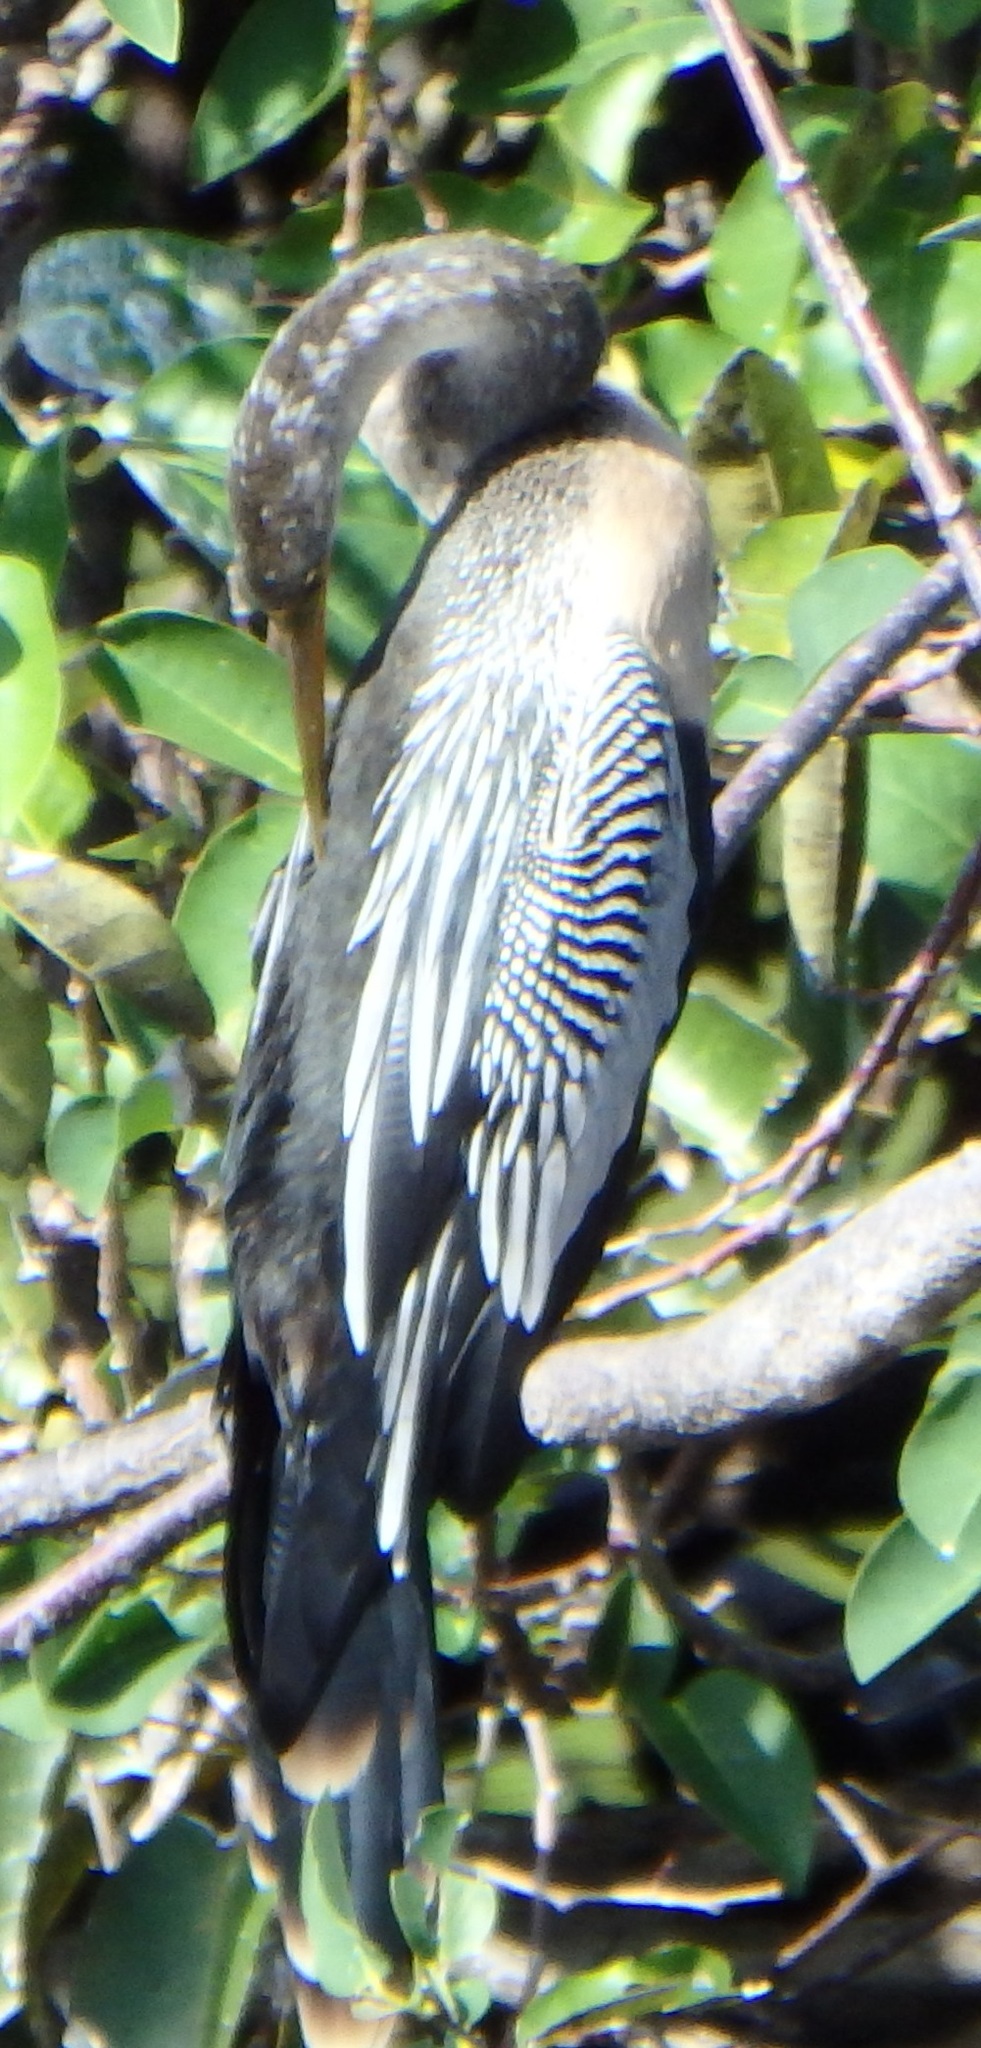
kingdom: Animalia
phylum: Chordata
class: Aves
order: Suliformes
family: Anhingidae
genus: Anhinga
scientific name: Anhinga anhinga
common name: Anhinga
